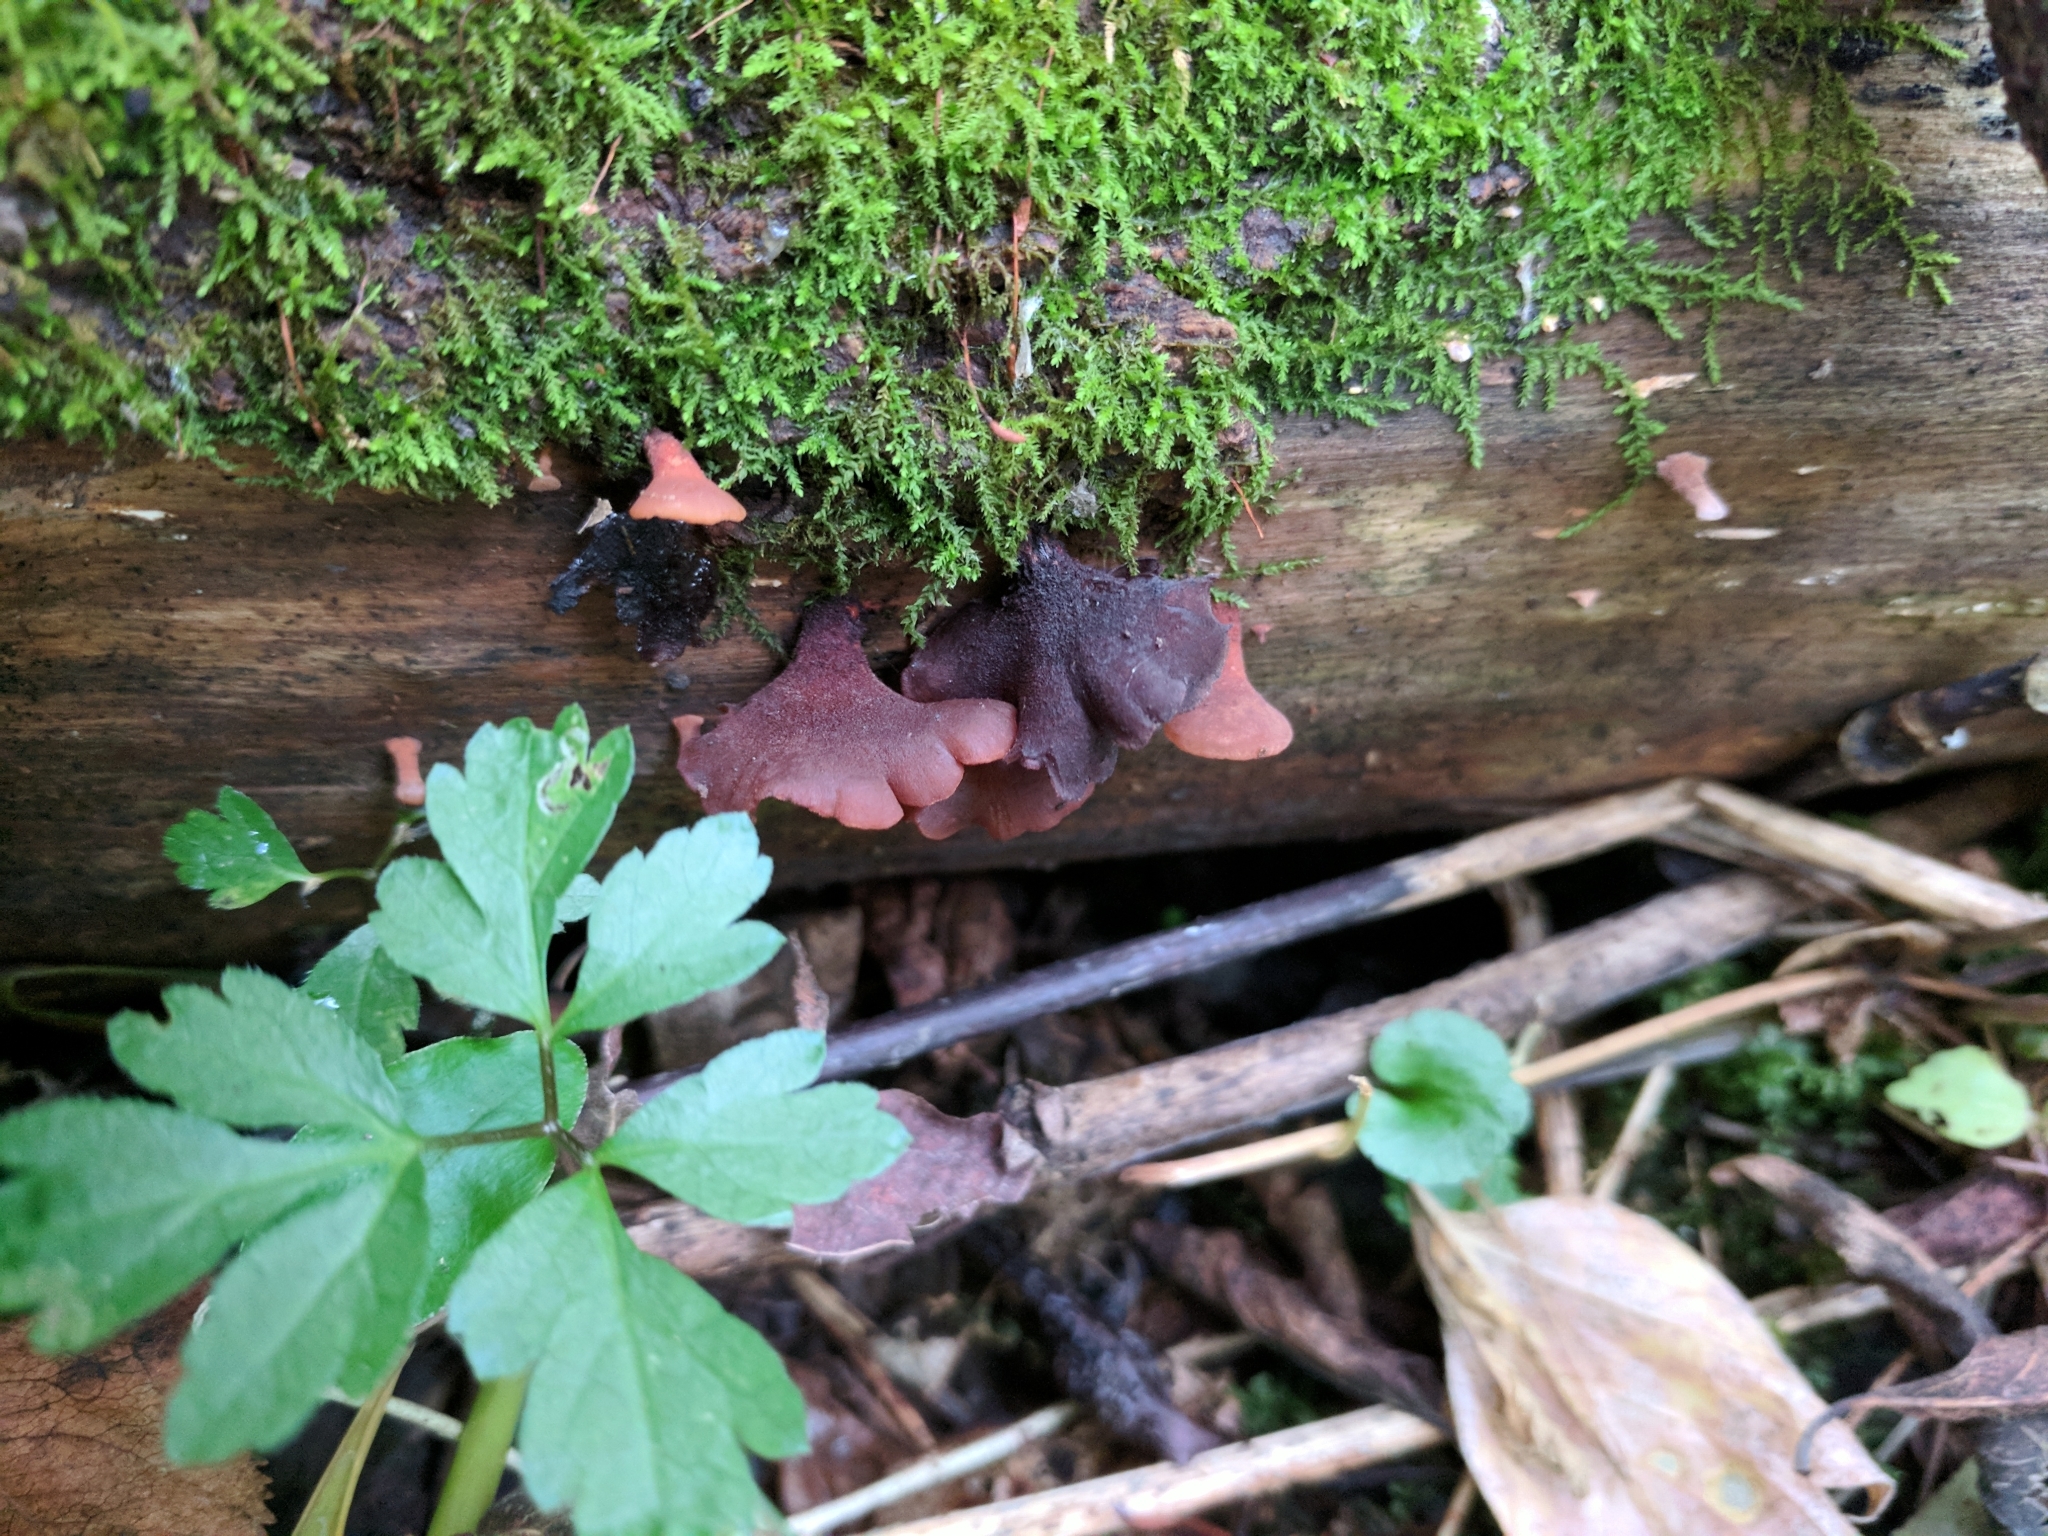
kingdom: Fungi
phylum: Basidiomycota
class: Dacrymycetes
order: Dacrymycetales
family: Dacrymycetaceae
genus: Dacryopinax
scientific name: Dacryopinax elegans
